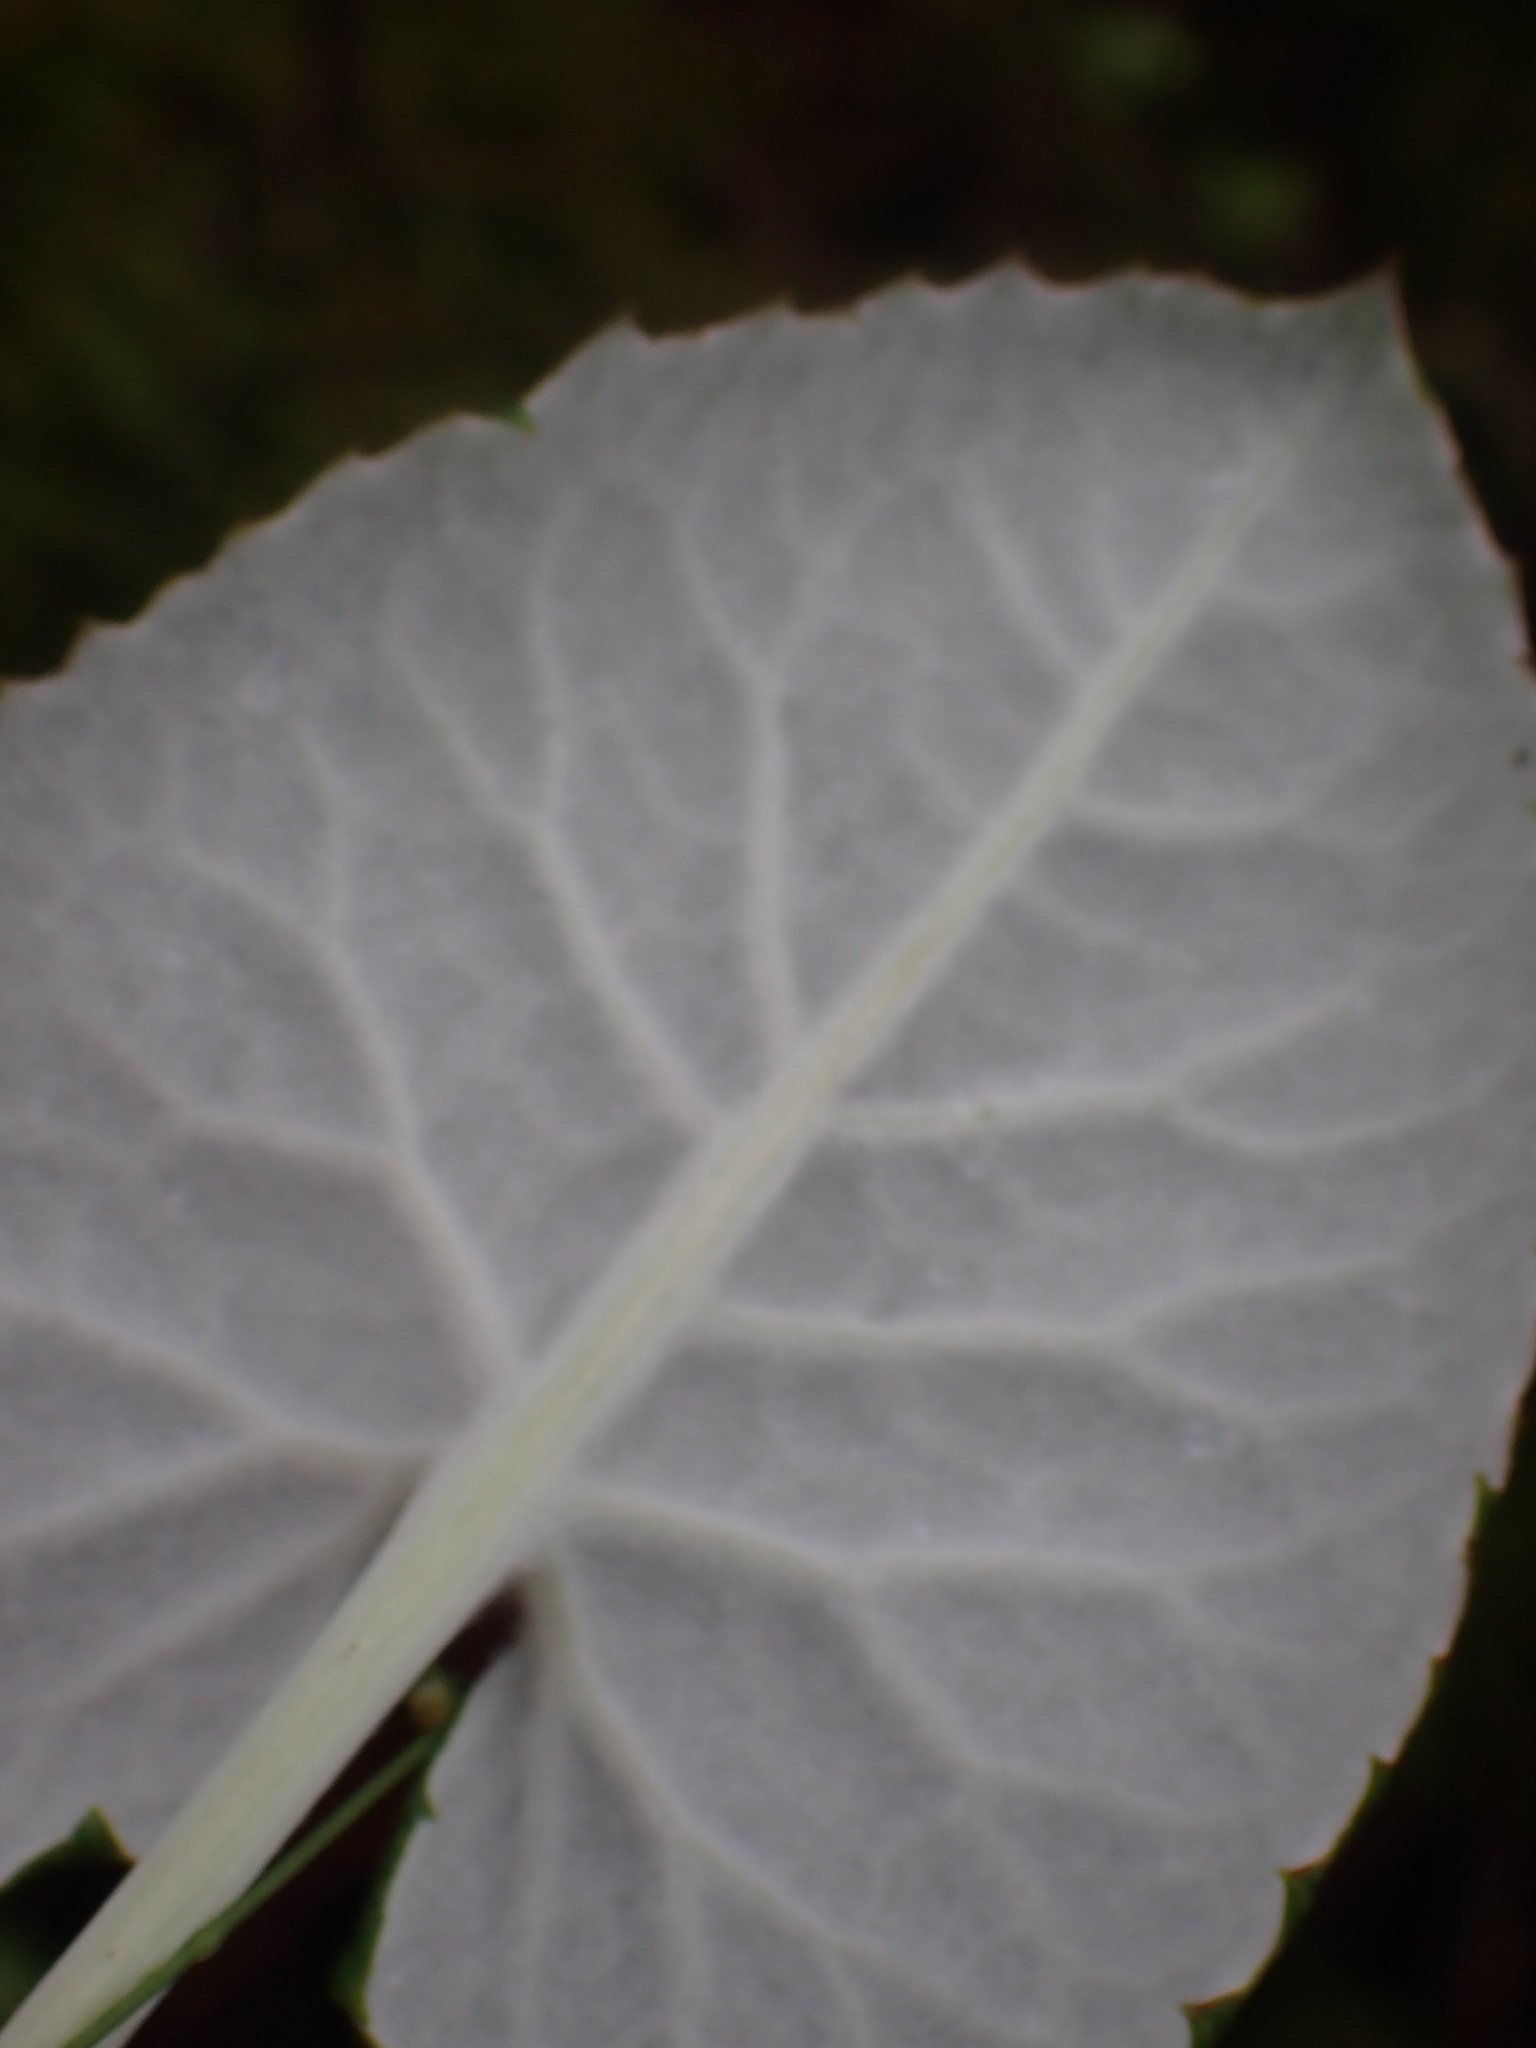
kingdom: Plantae
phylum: Tracheophyta
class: Magnoliopsida
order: Asterales
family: Asteraceae
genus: Petasites
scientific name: Petasites frigidus
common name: Arctic butterbur
